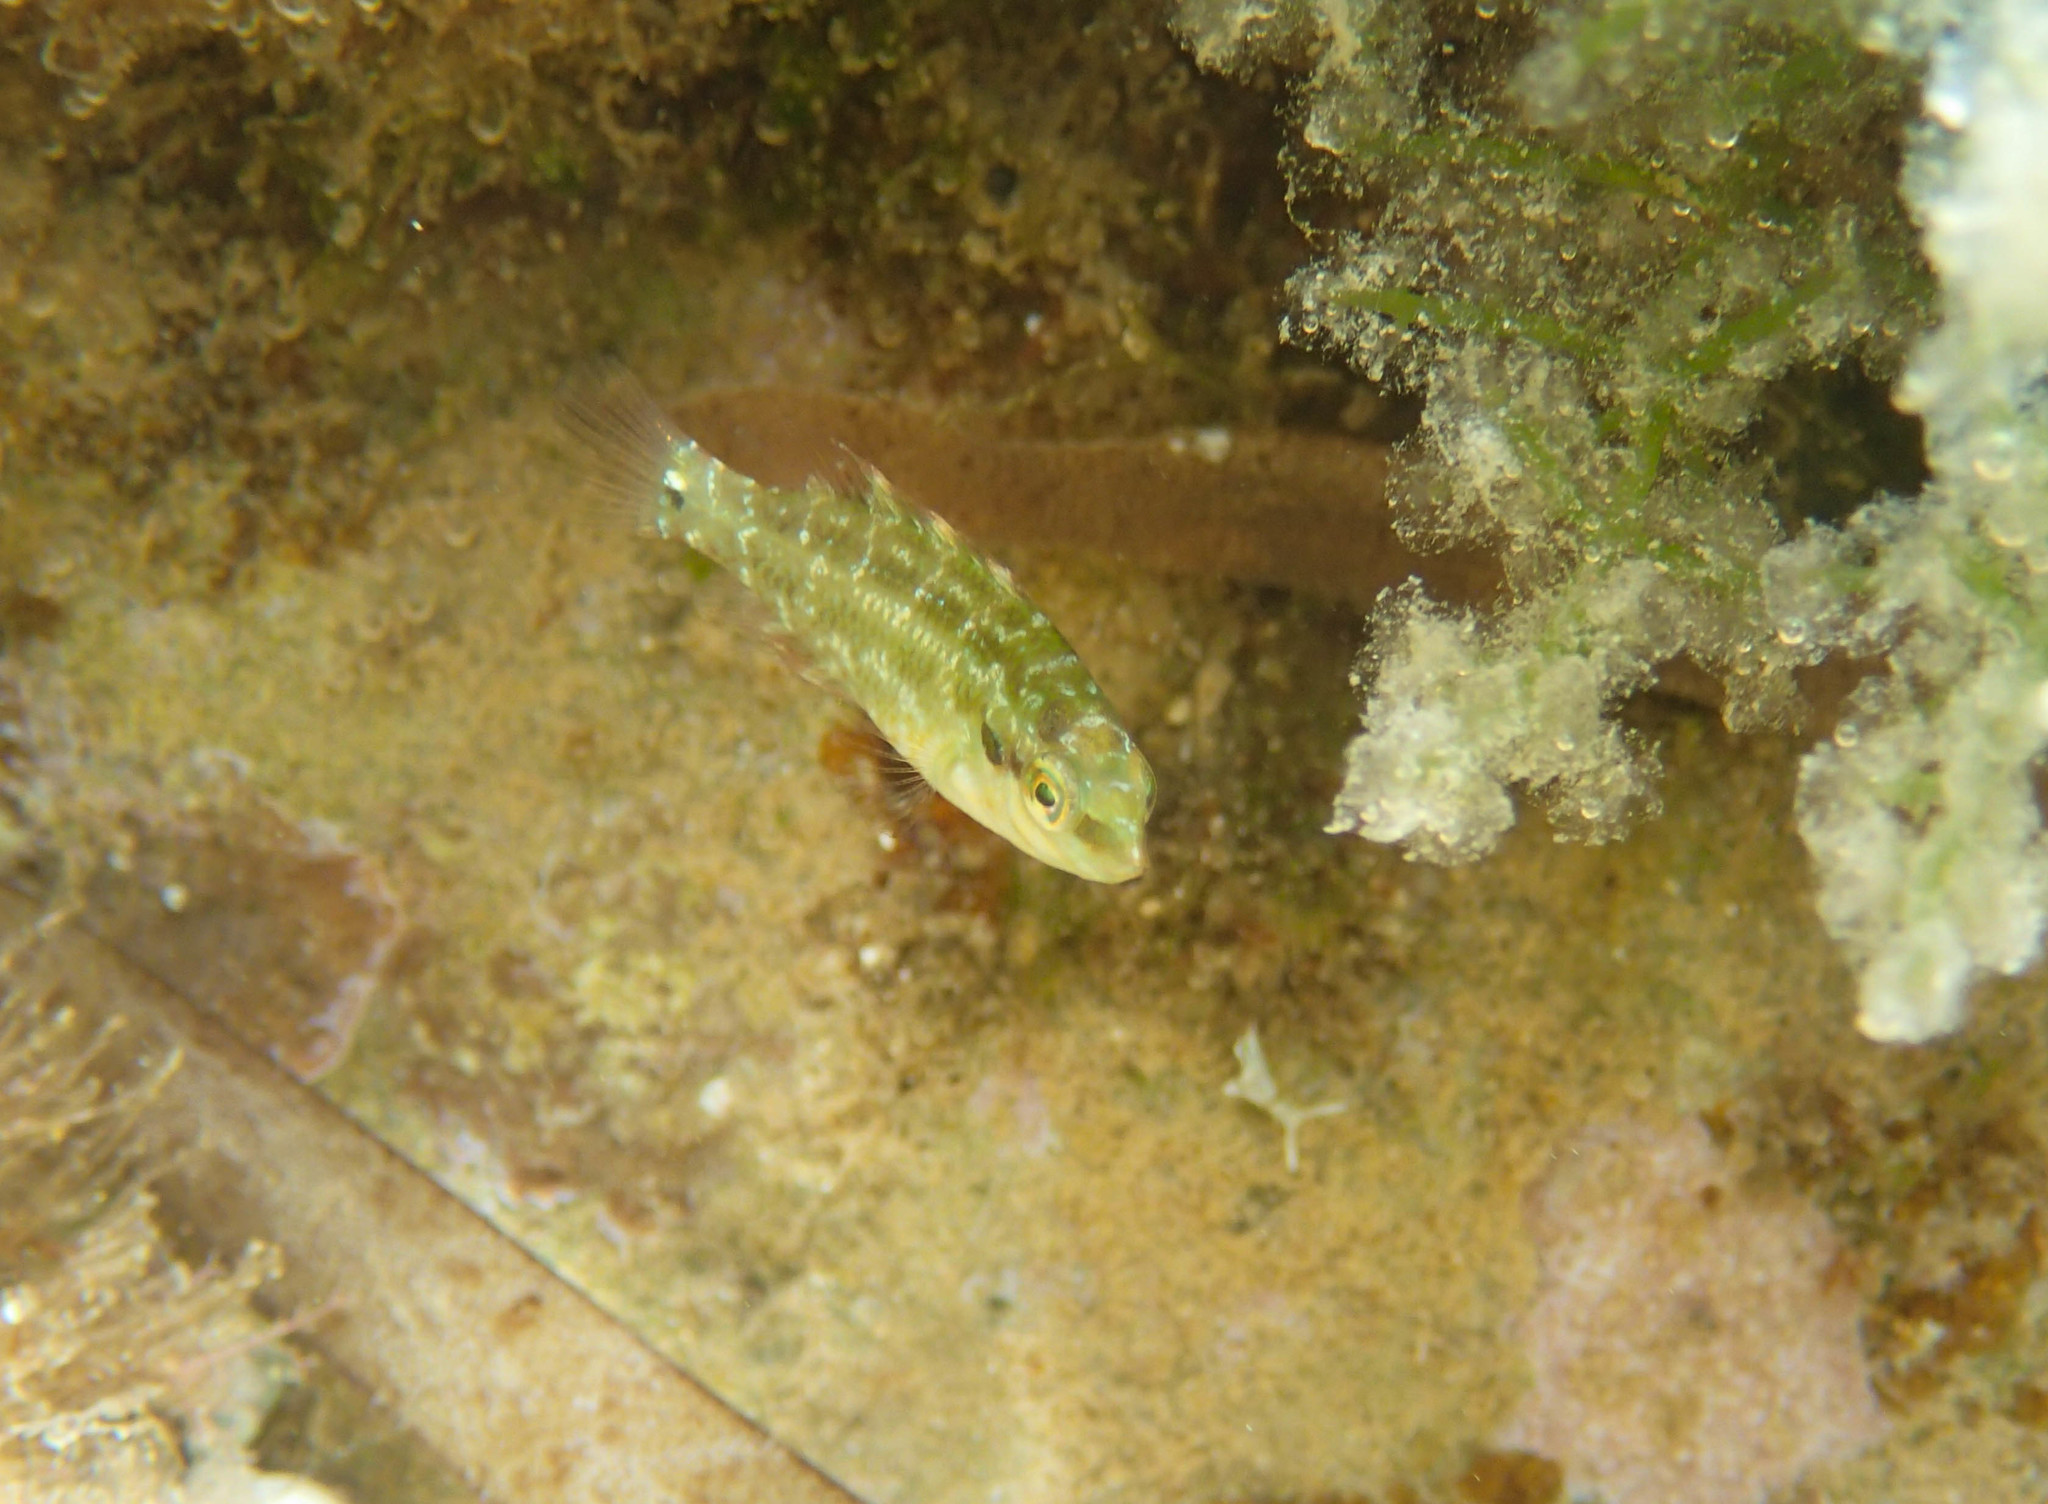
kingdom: Animalia
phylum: Chordata
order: Perciformes
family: Labridae
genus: Symphodus
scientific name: Symphodus roissali
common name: Five-spotted wrasse
